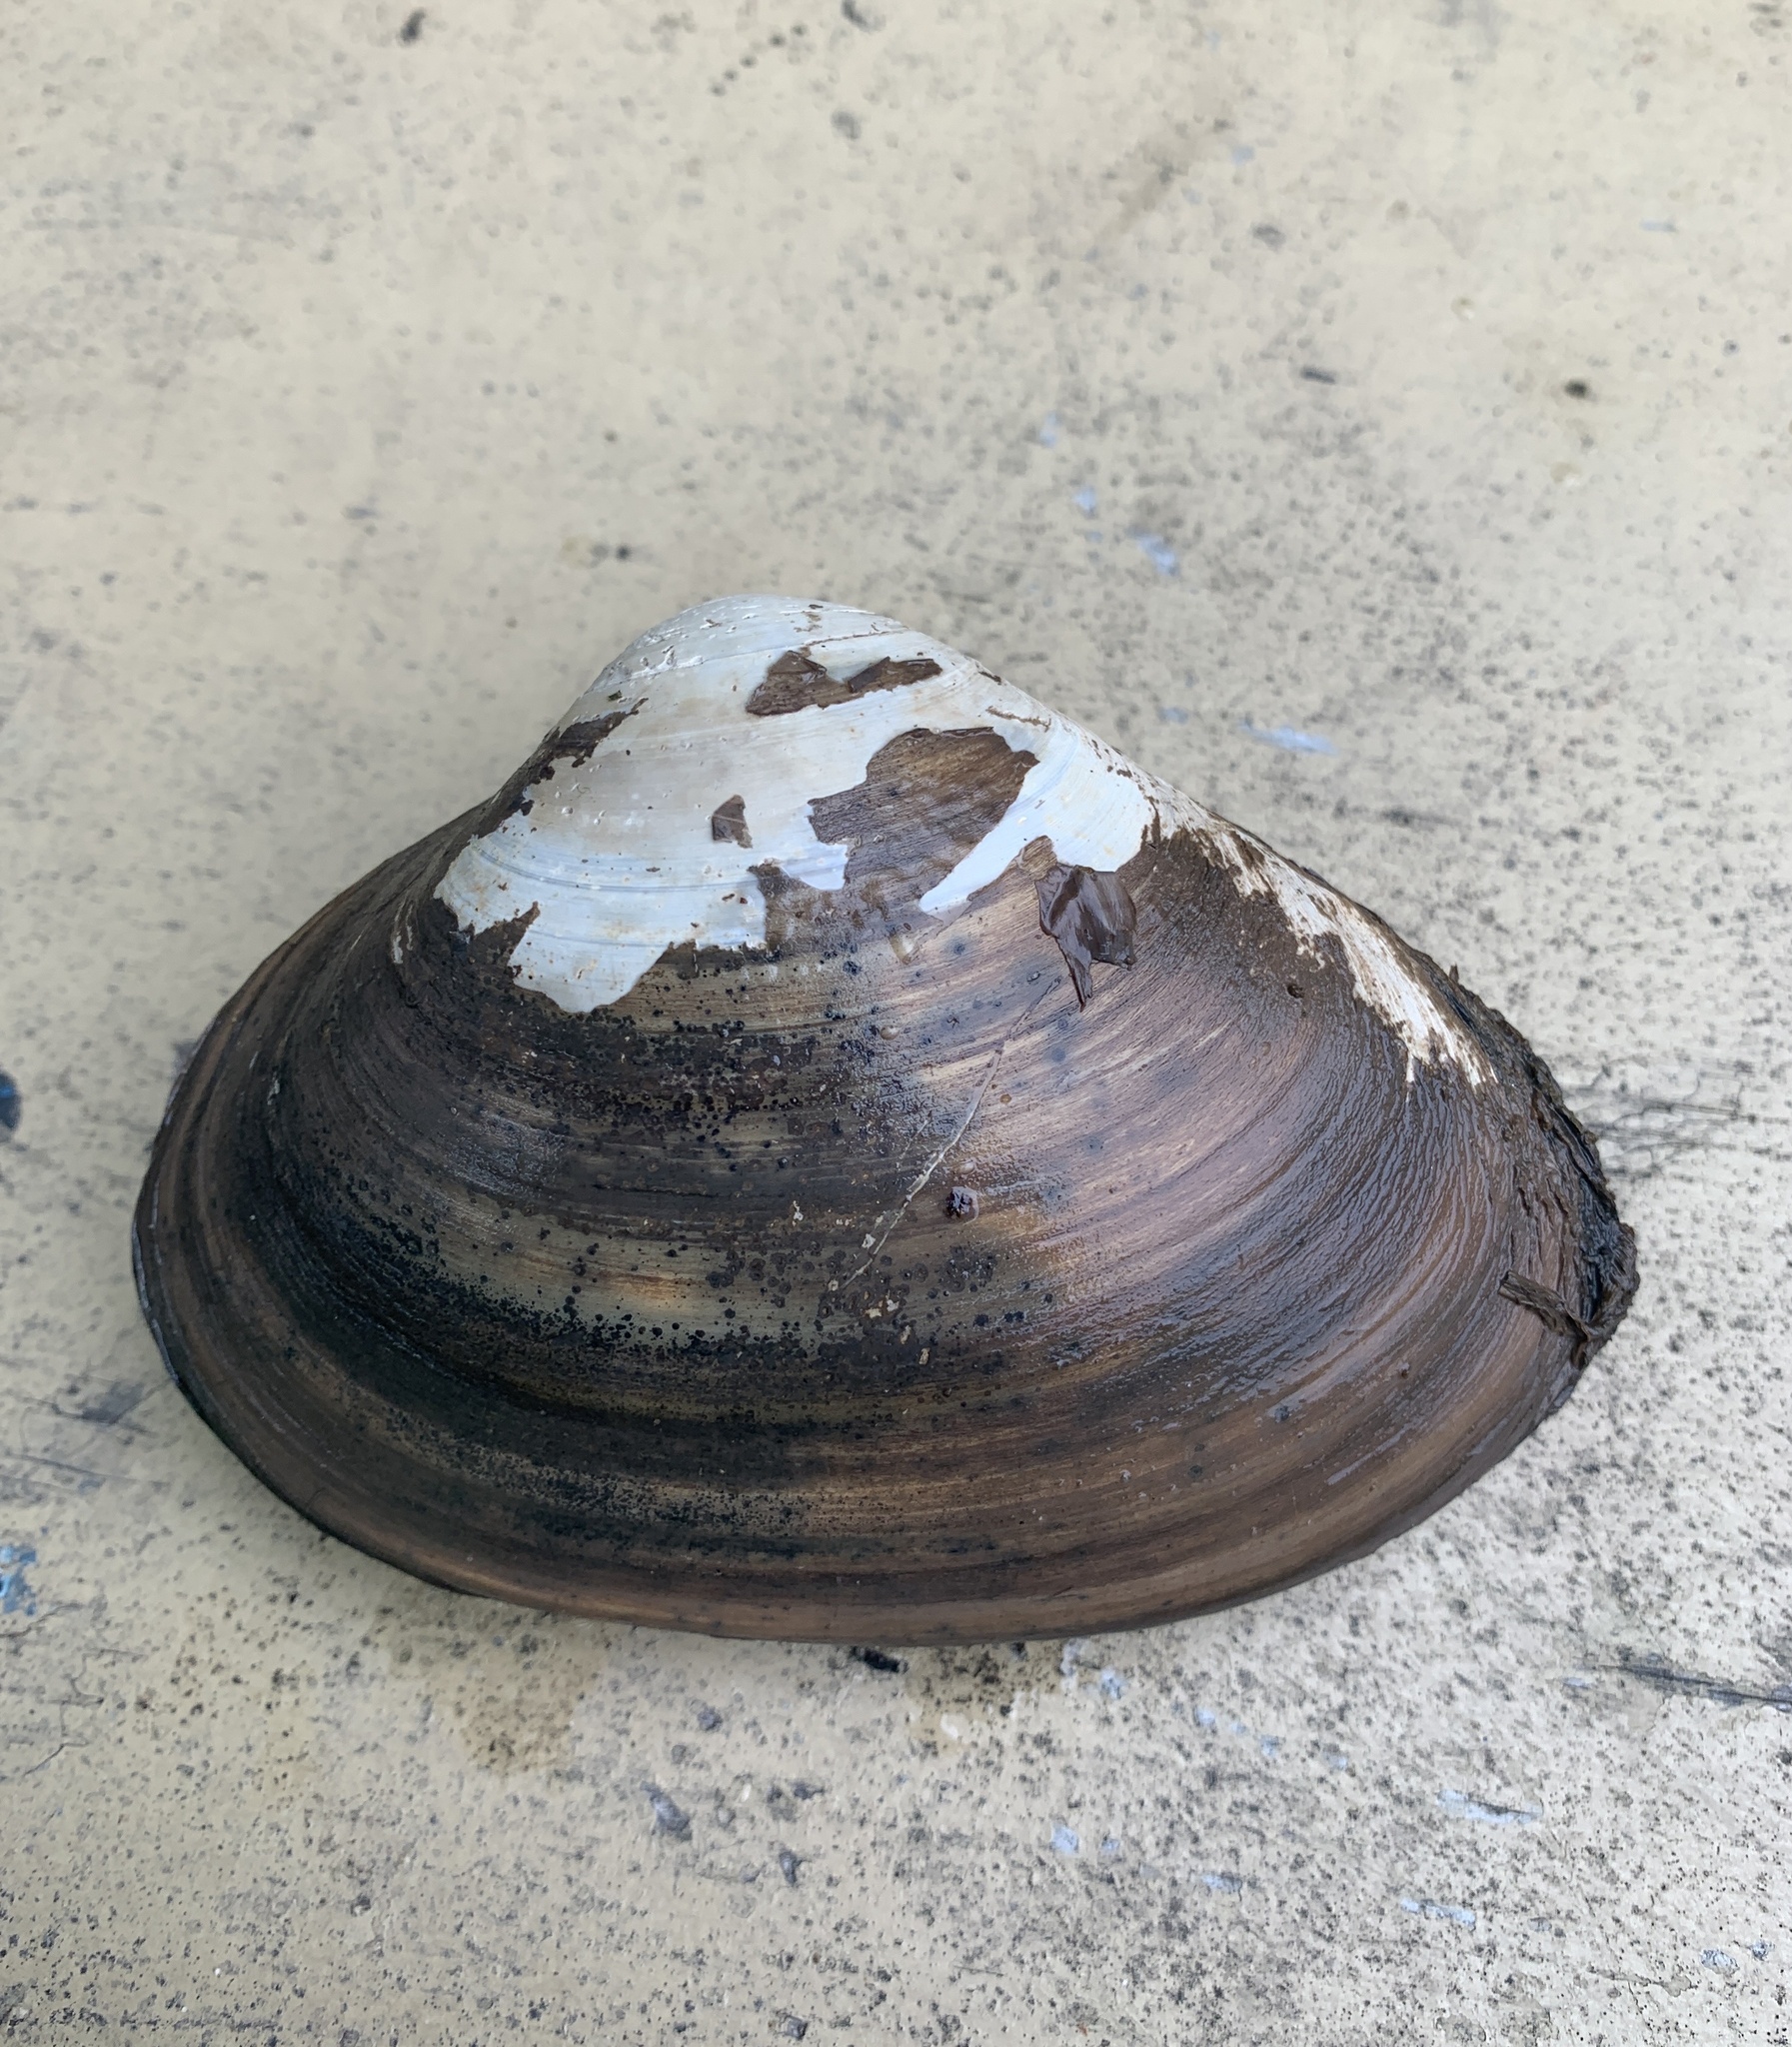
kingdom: Animalia
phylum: Mollusca
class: Bivalvia
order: Venerida
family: Mactridae
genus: Spisula
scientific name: Spisula solidissima
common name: Atlantic surf clam
